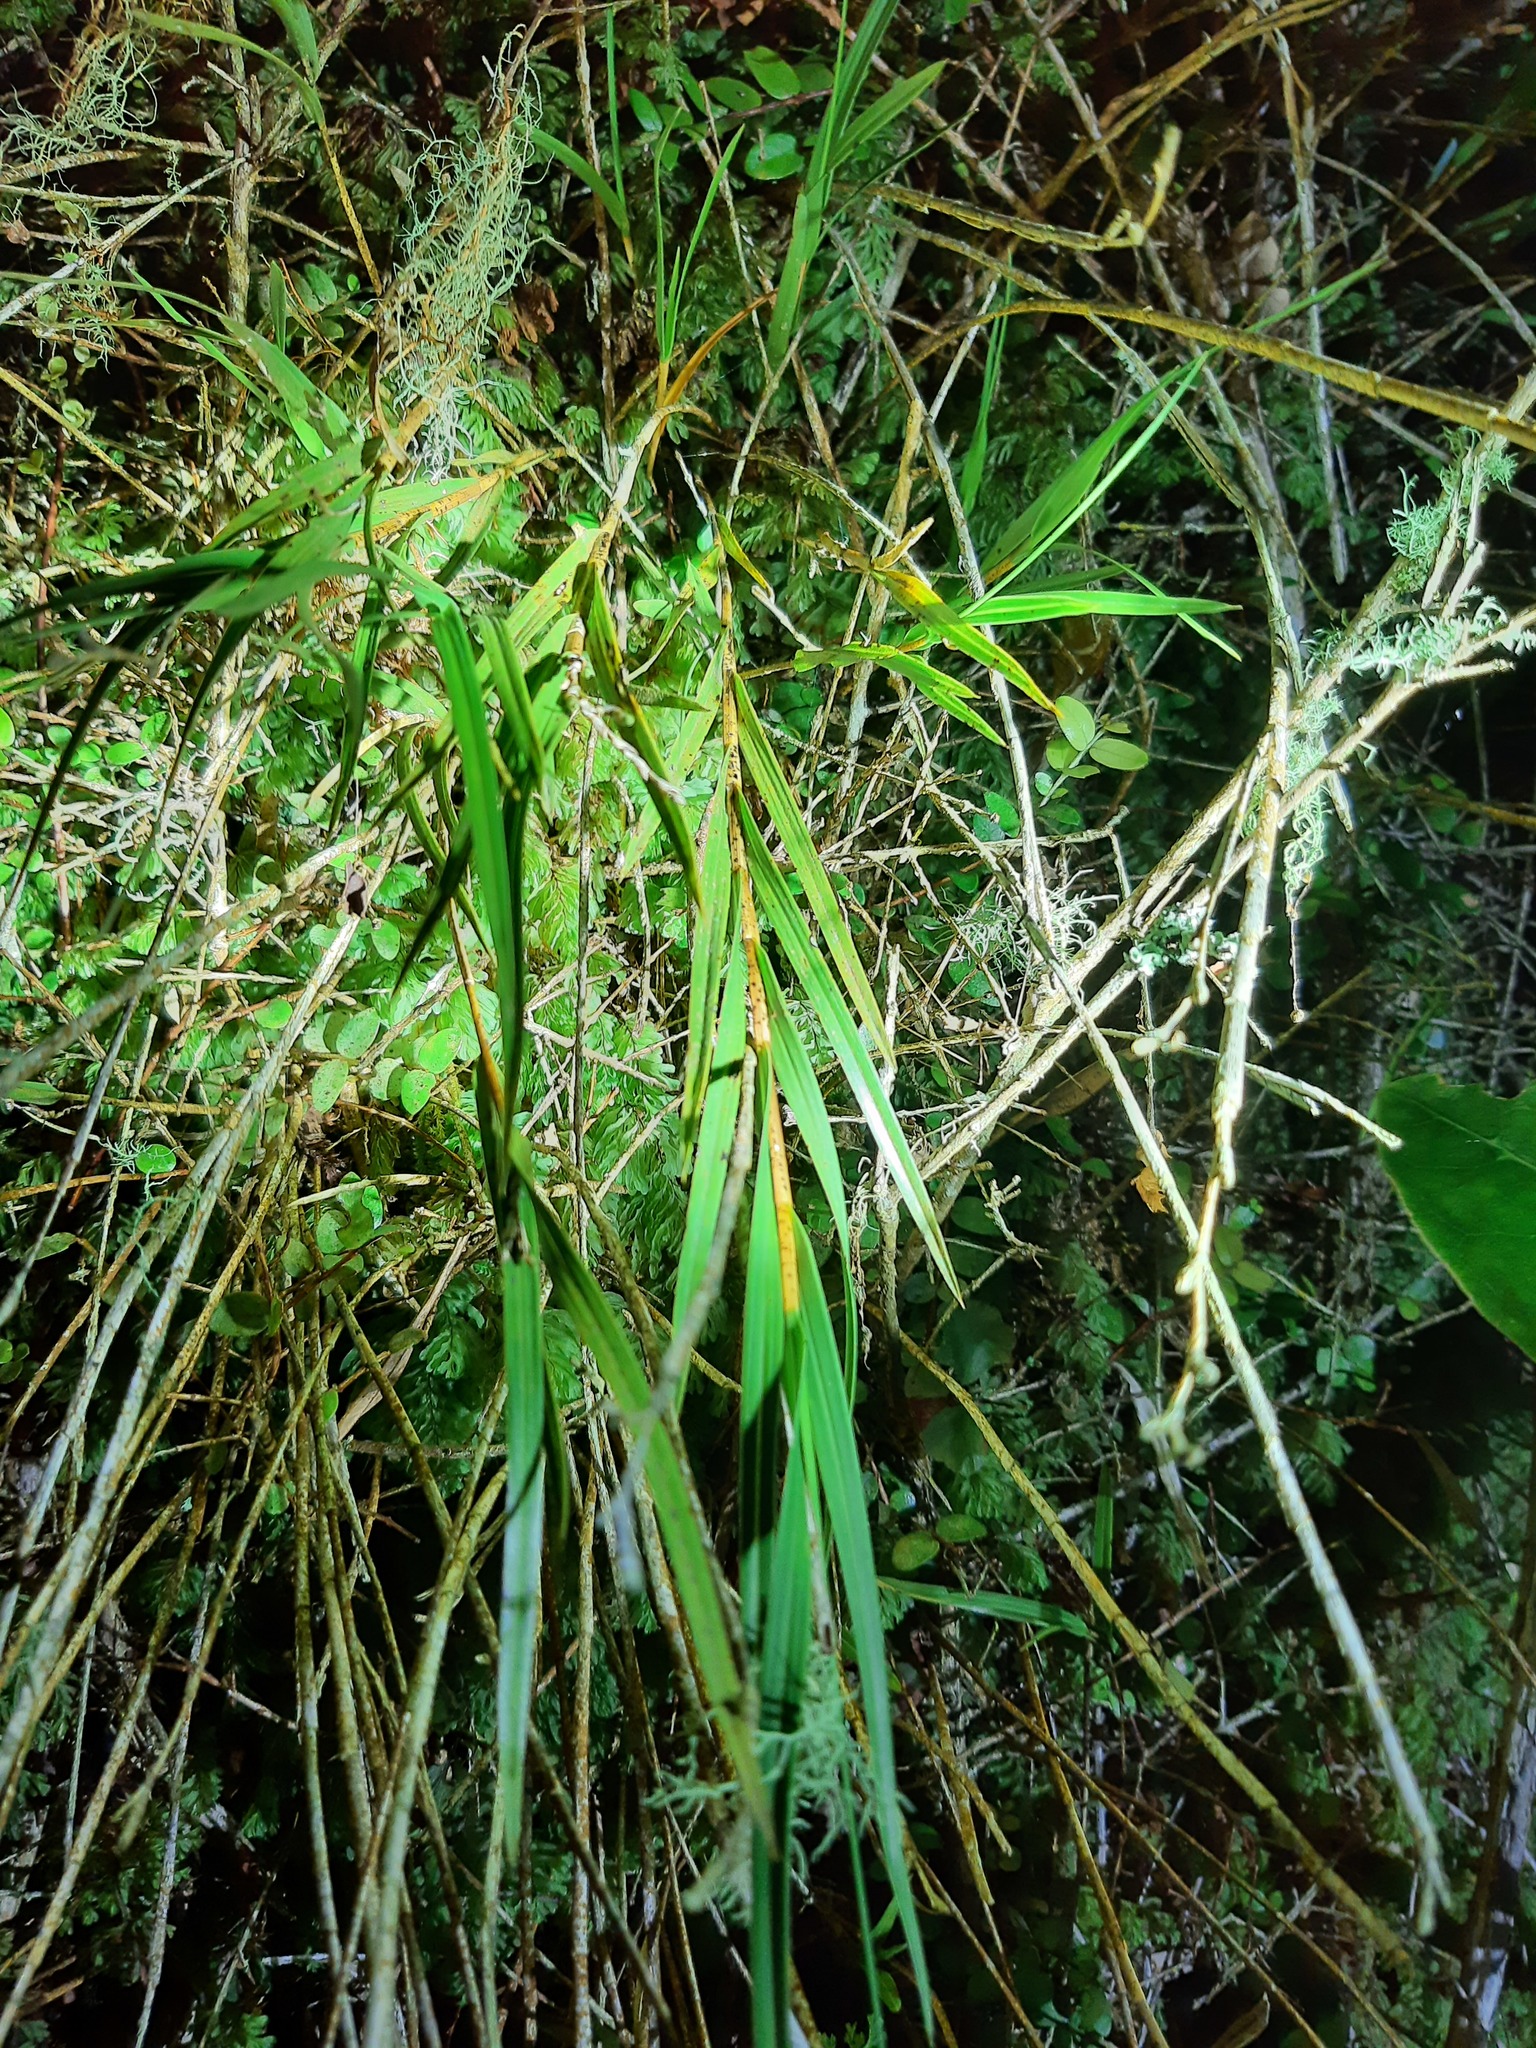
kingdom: Plantae
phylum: Tracheophyta
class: Liliopsida
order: Asparagales
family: Orchidaceae
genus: Earina
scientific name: Earina mucronata
